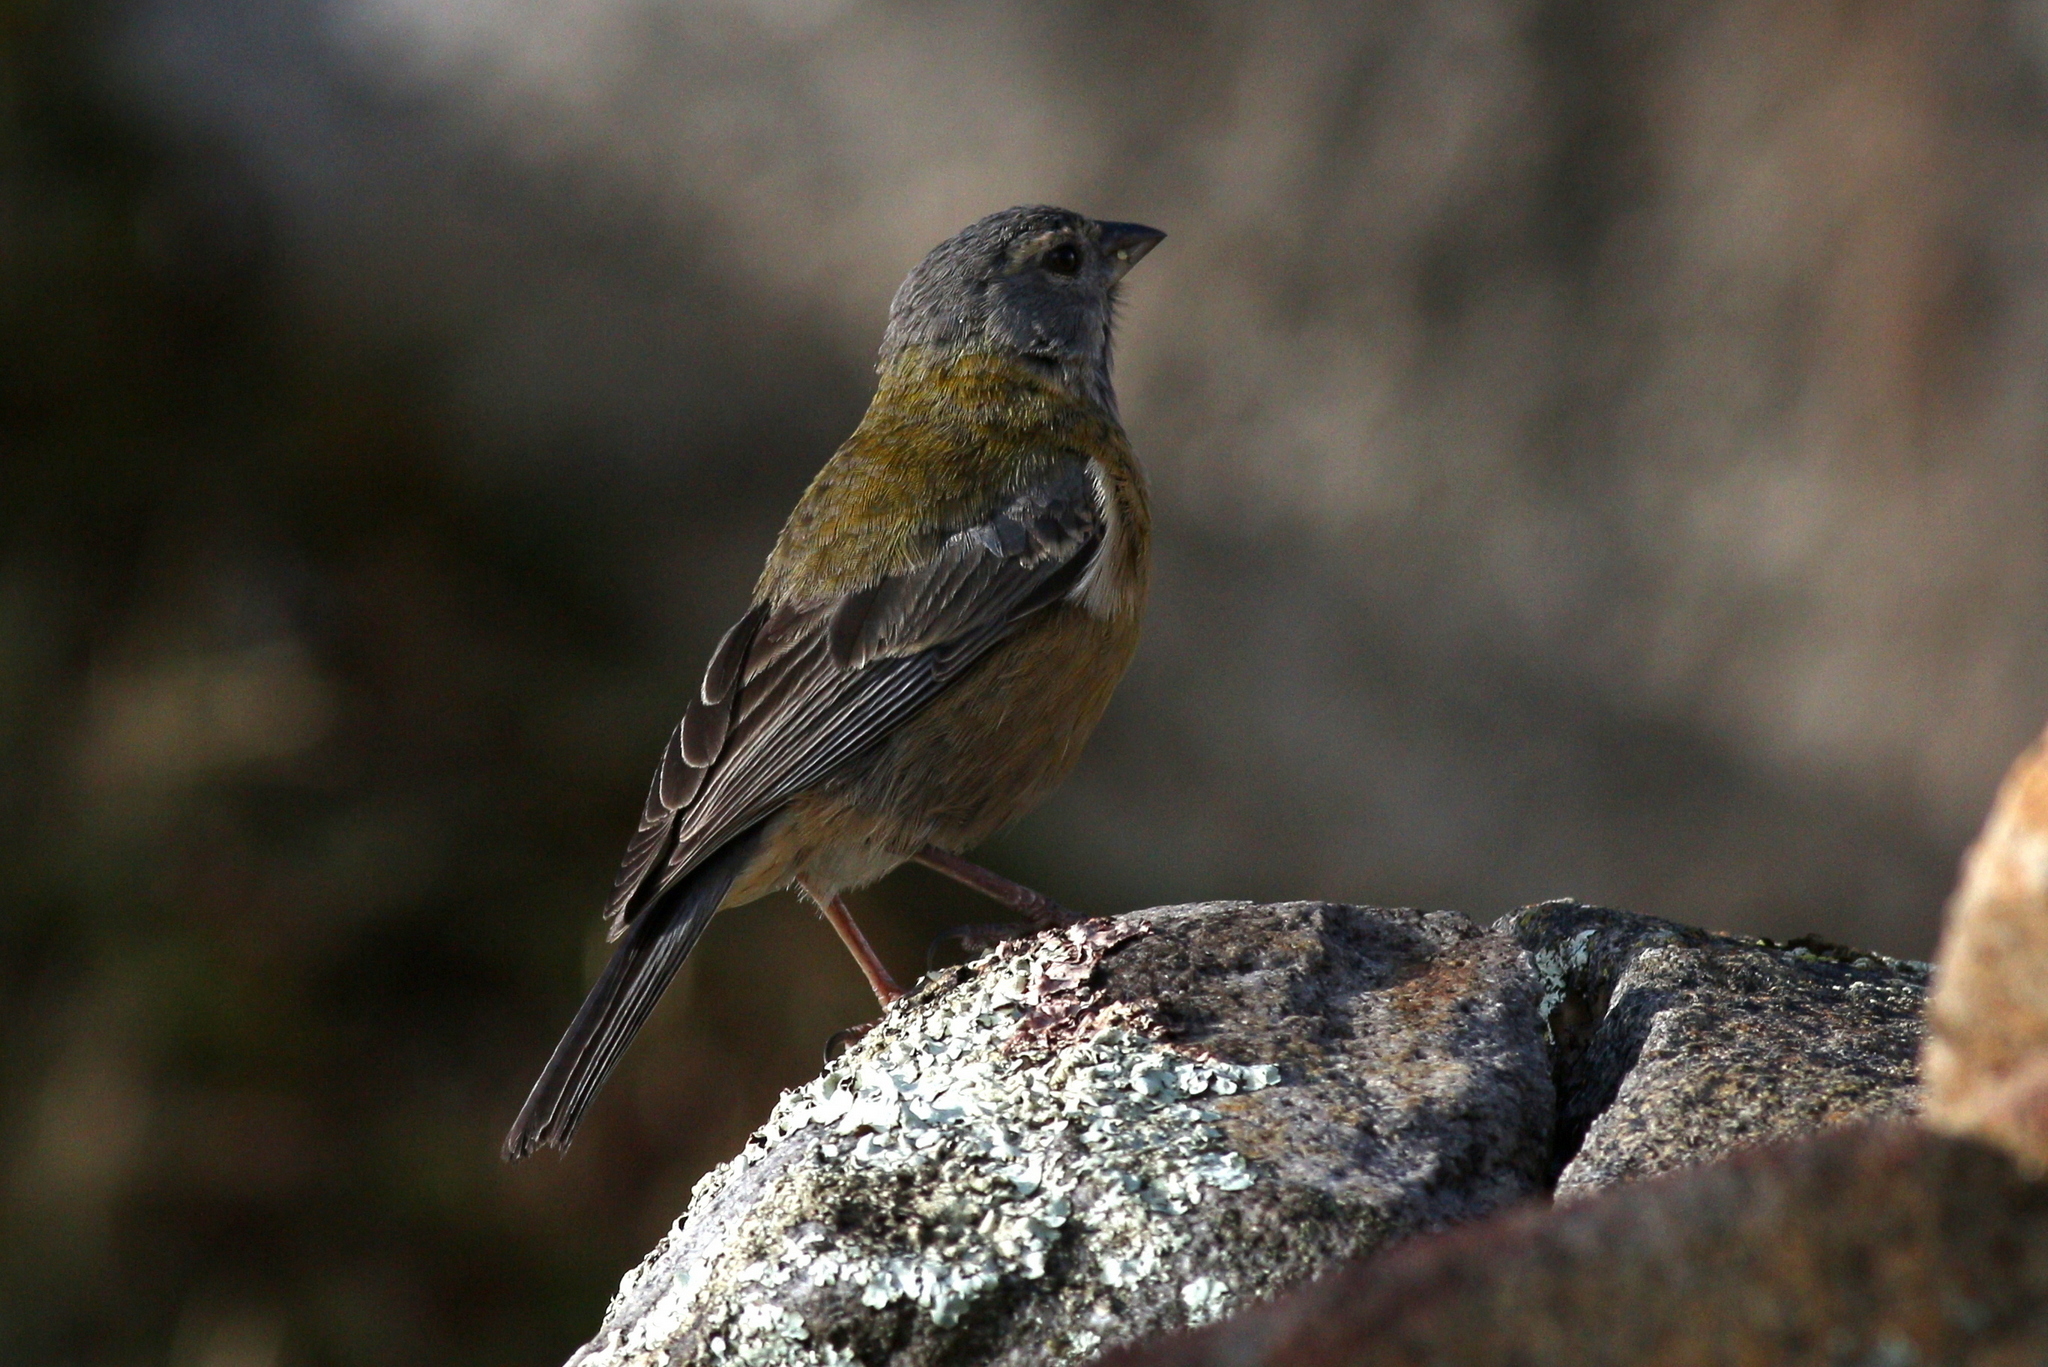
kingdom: Animalia
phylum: Chordata
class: Aves
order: Passeriformes
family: Thraupidae
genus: Phrygilus
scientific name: Phrygilus punensis
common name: Peruvian sierra finch
